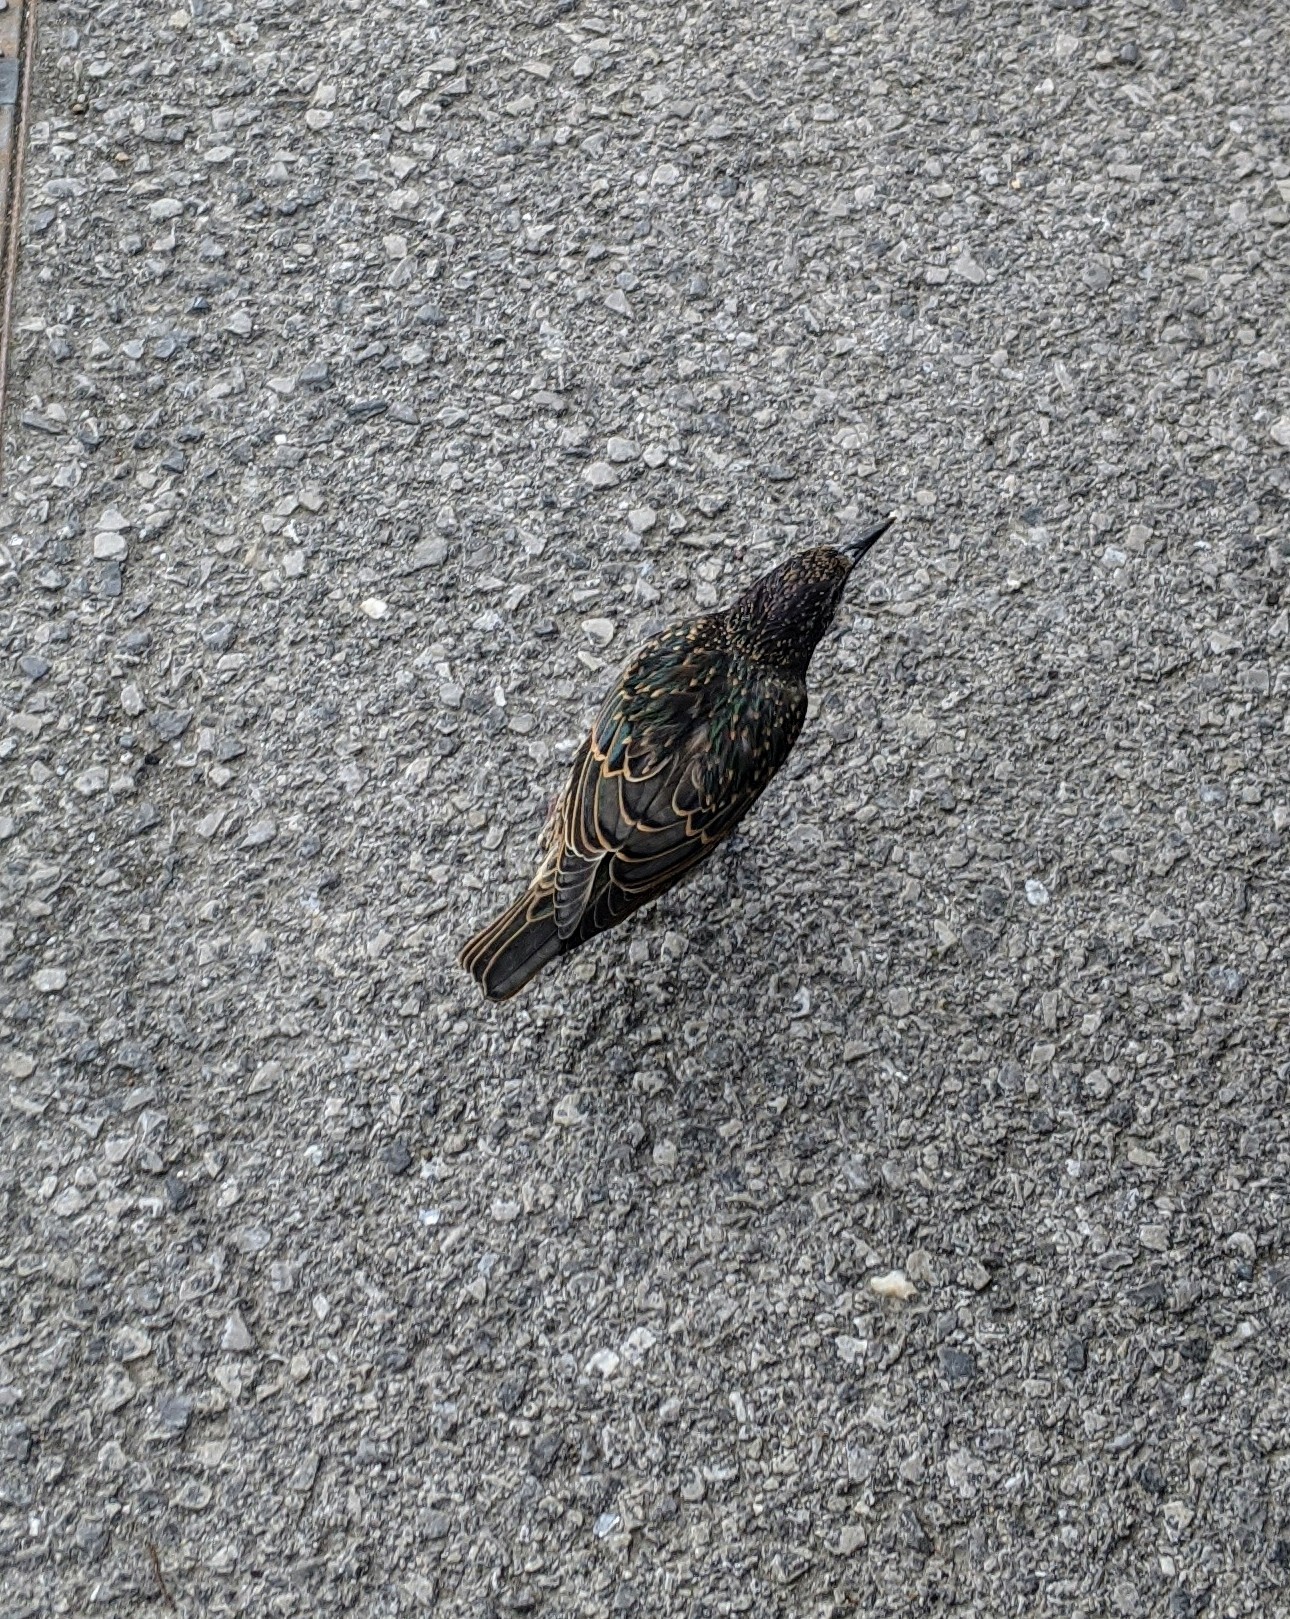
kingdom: Animalia
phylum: Chordata
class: Aves
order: Passeriformes
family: Sturnidae
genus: Sturnus
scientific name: Sturnus vulgaris
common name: Common starling
